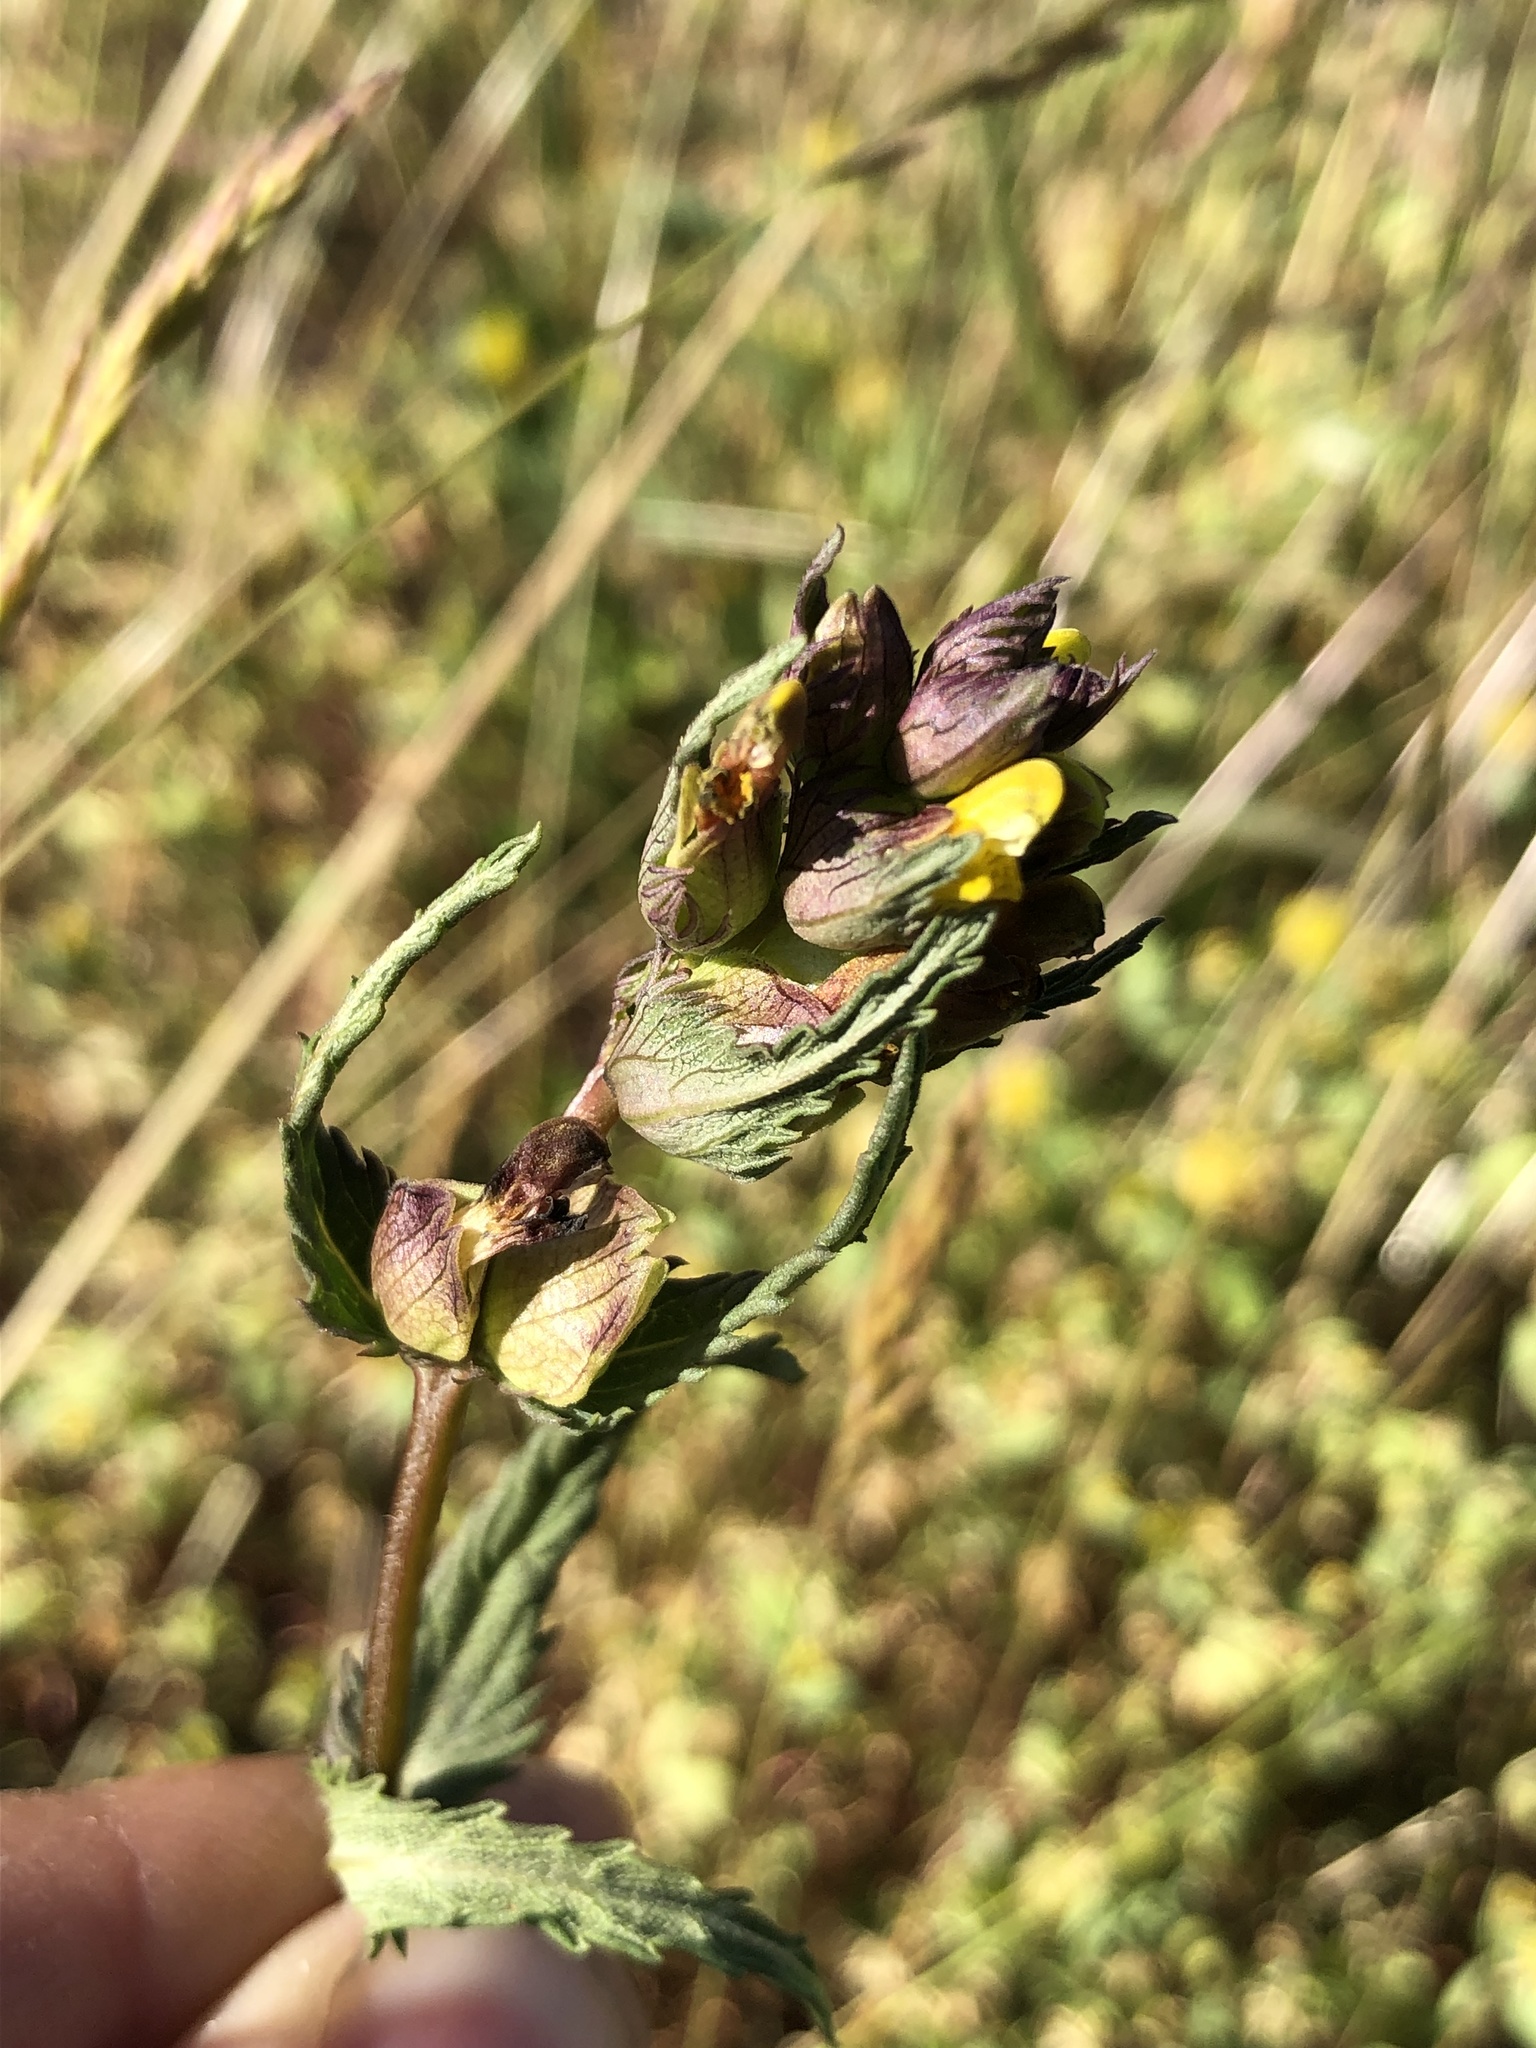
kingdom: Plantae
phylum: Tracheophyta
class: Magnoliopsida
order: Lamiales
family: Orobanchaceae
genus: Rhinanthus
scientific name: Rhinanthus minor
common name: Yellow-rattle
